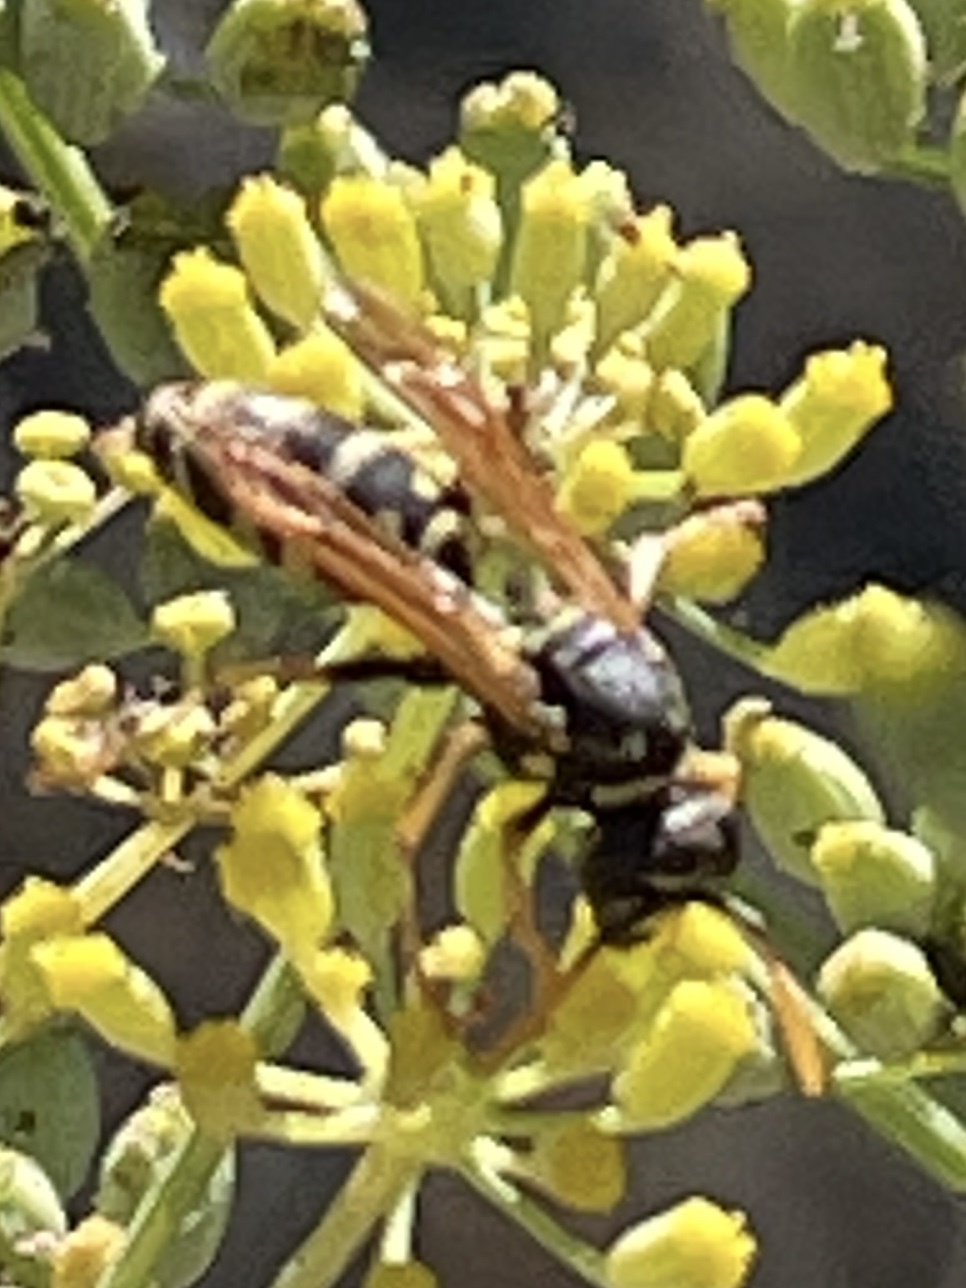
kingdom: Animalia
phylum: Arthropoda
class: Insecta
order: Hymenoptera
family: Eumenidae
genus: Polistes
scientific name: Polistes dominula
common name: Paper wasp
